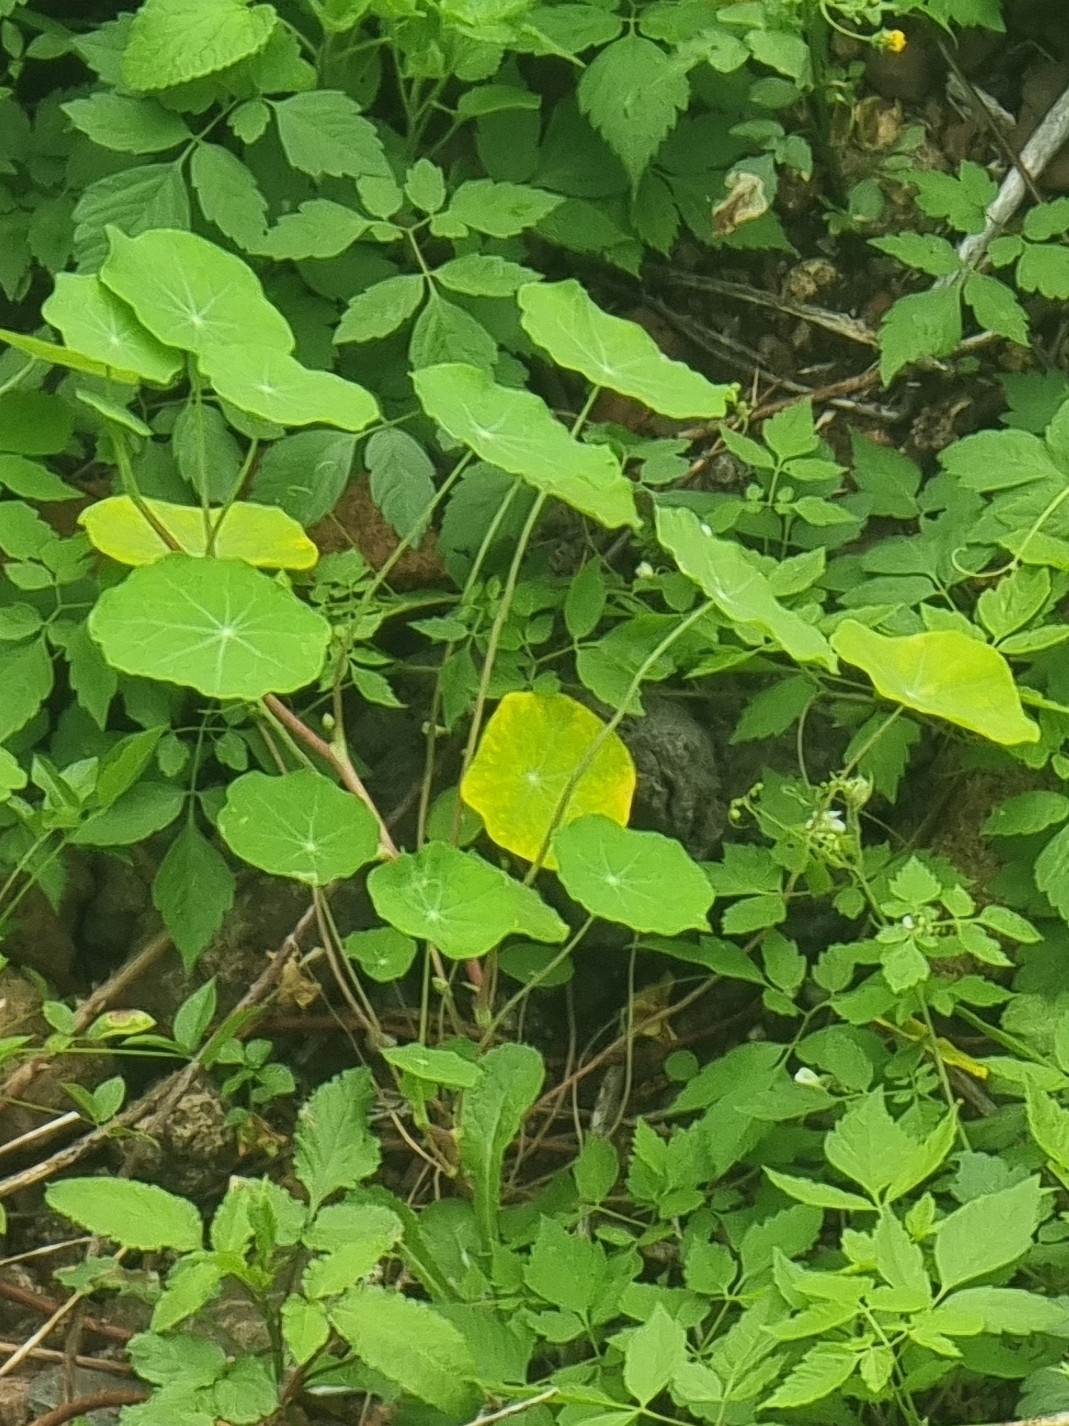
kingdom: Plantae
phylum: Tracheophyta
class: Magnoliopsida
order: Brassicales
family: Tropaeolaceae
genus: Tropaeolum
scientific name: Tropaeolum majus
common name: Nasturtium
